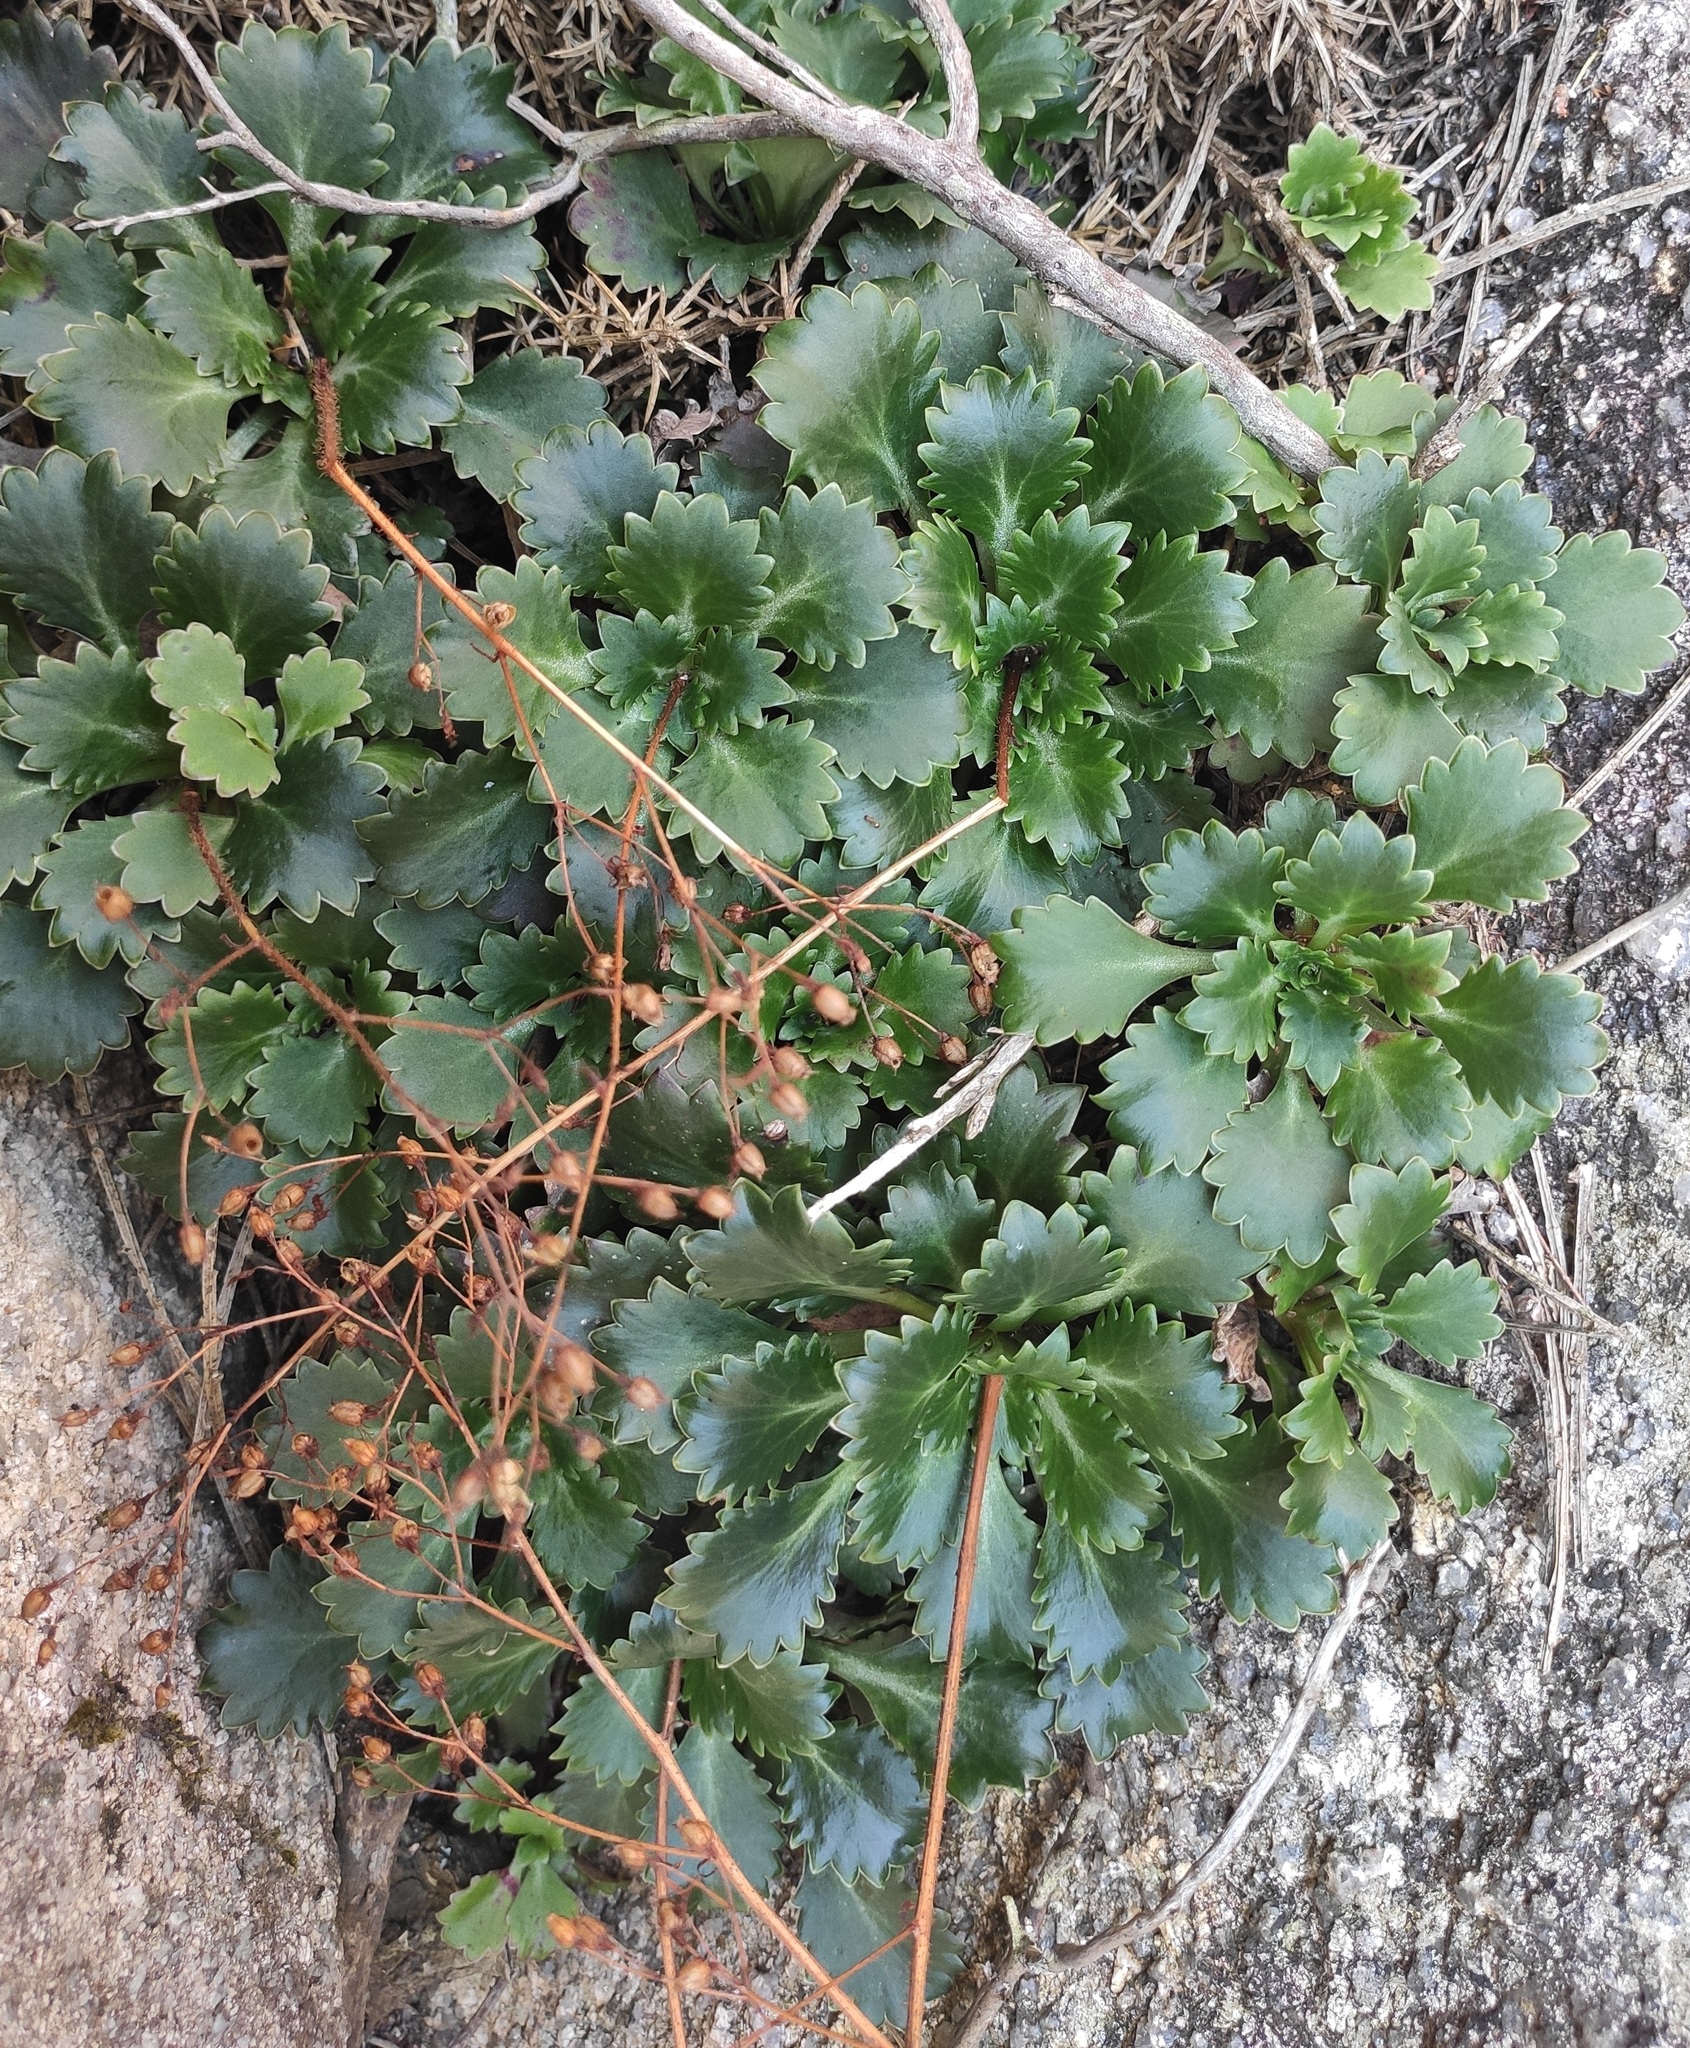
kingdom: Plantae
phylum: Tracheophyta
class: Magnoliopsida
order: Saxifragales
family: Saxifragaceae
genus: Saxifraga
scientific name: Saxifraga spathularis
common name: St patrick's-cabbage
